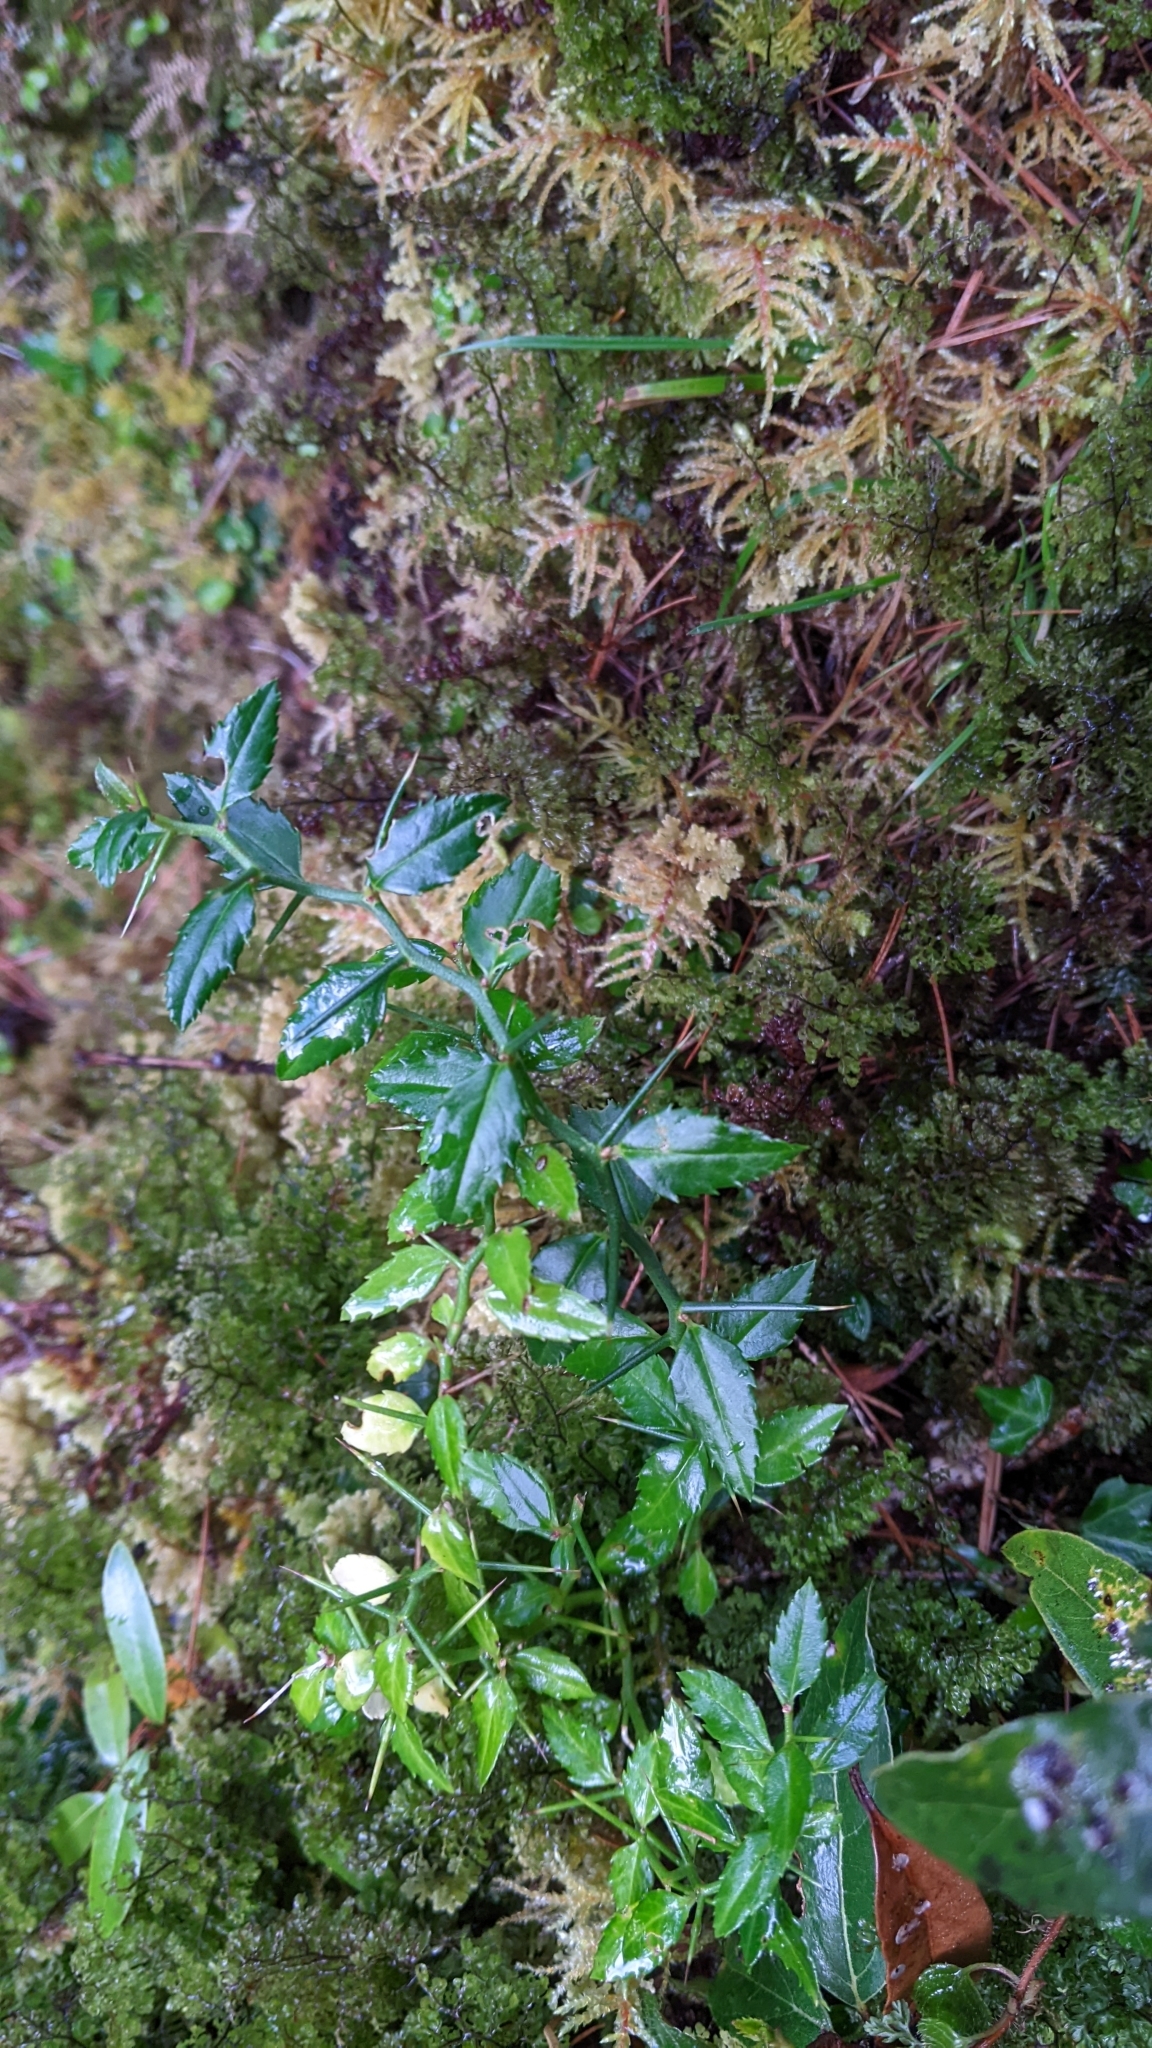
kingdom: Plantae
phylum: Tracheophyta
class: Magnoliopsida
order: Rosales
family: Rosaceae
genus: Prinsepia
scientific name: Prinsepia scandens
